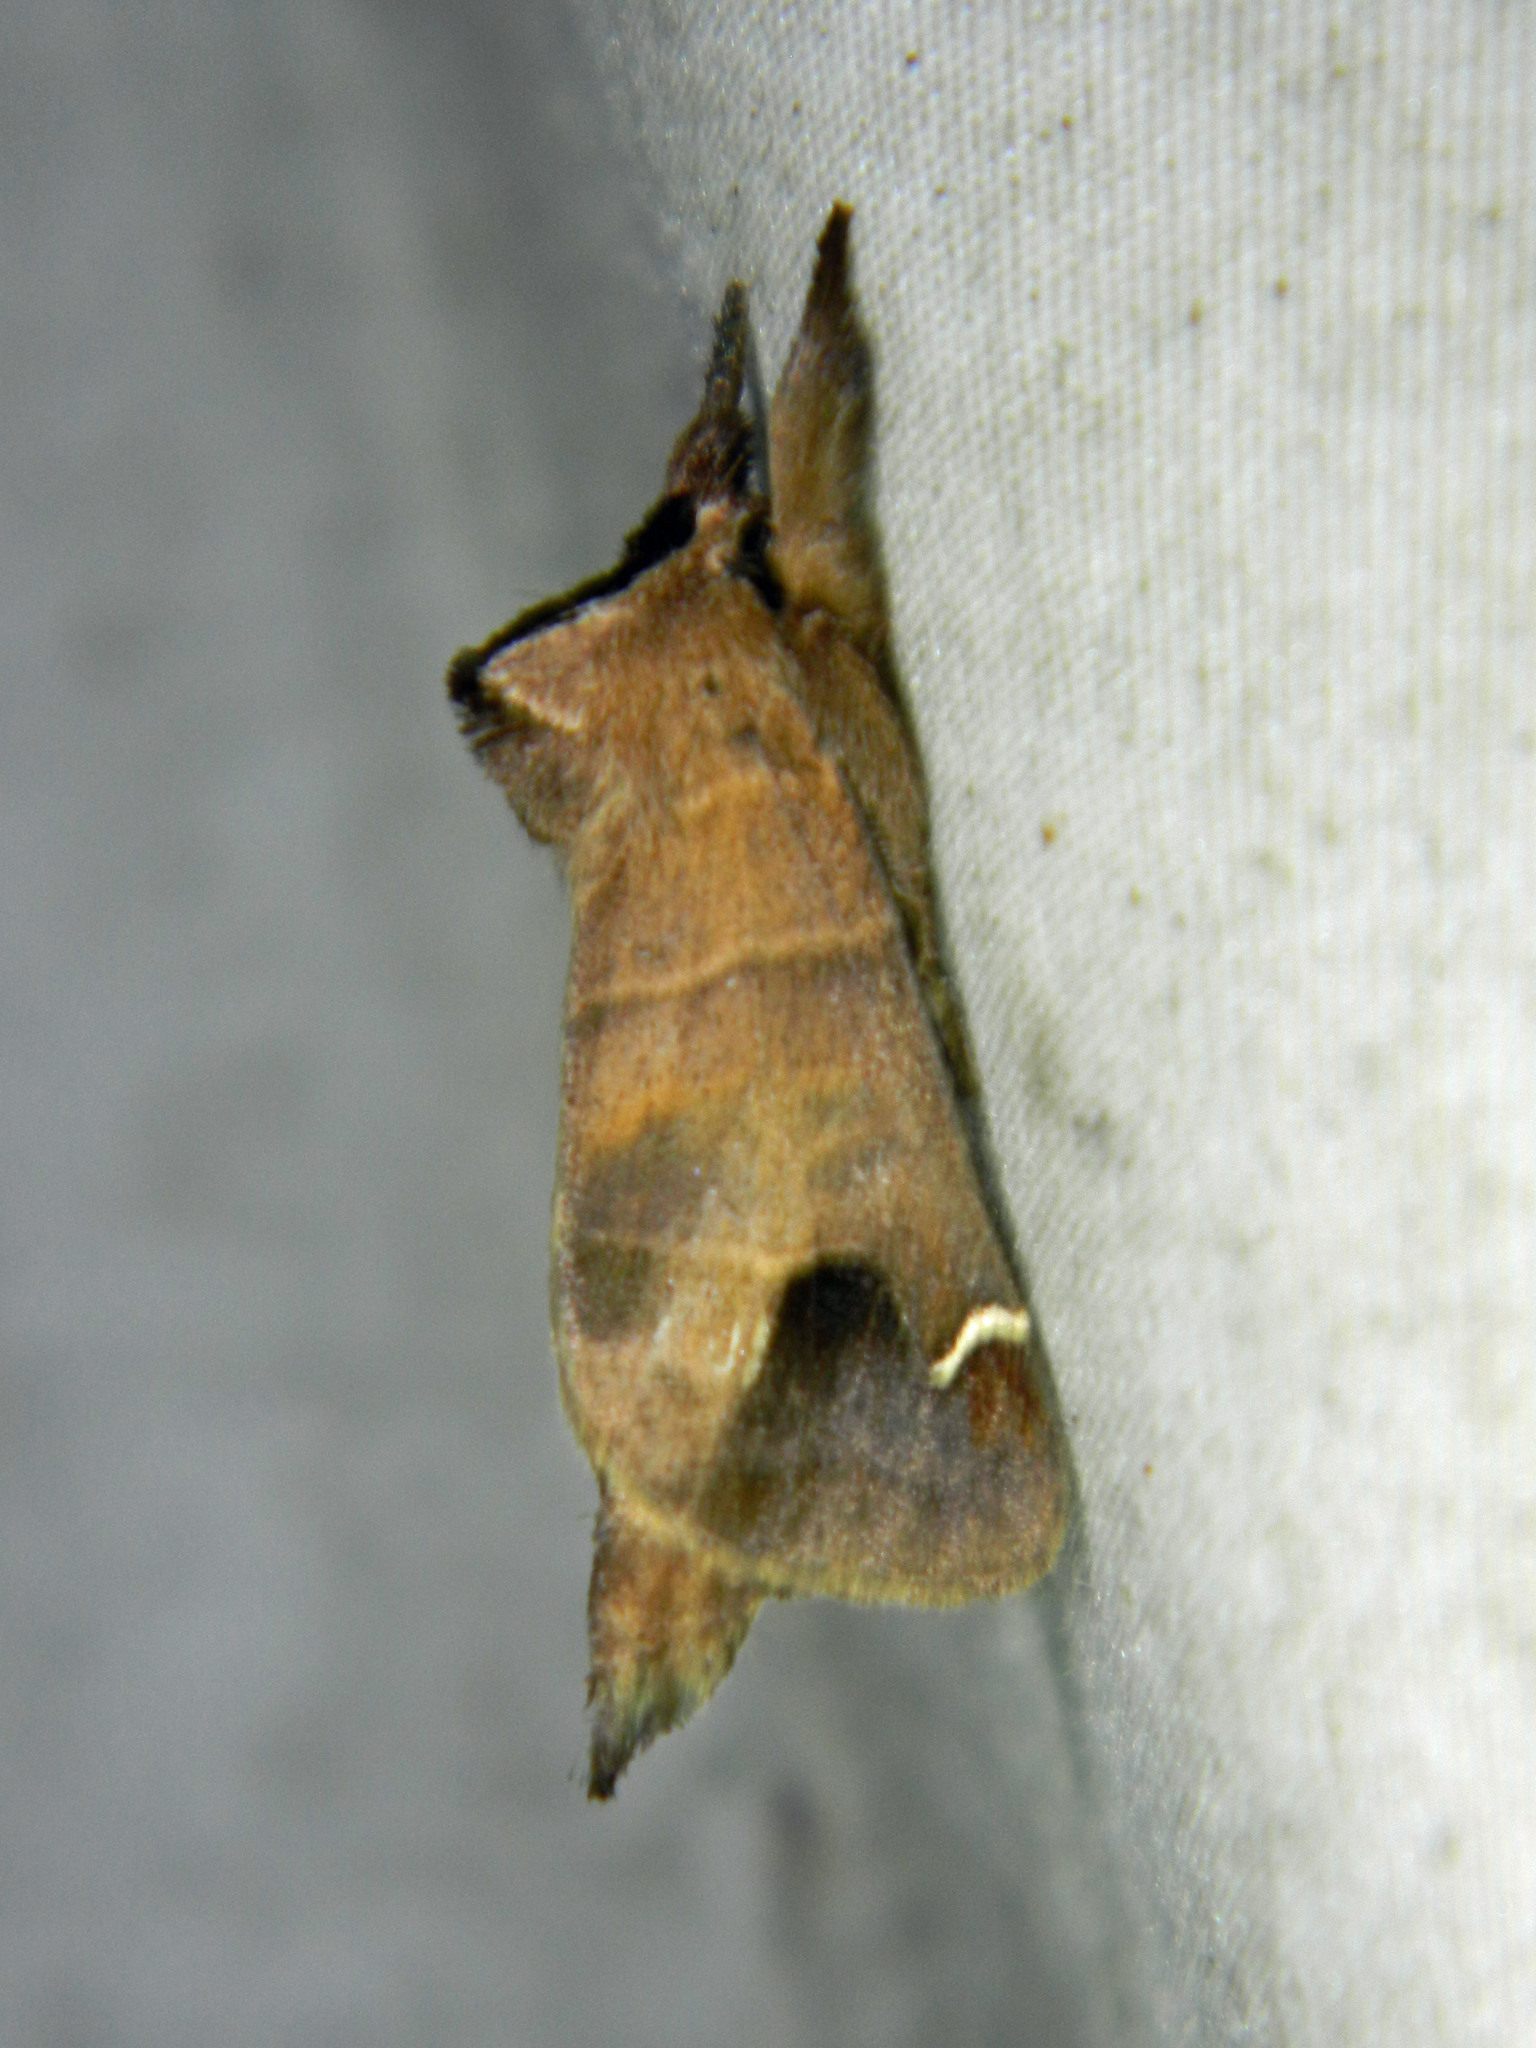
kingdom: Animalia
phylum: Arthropoda
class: Insecta
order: Lepidoptera
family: Notodontidae
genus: Clostera
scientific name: Clostera albosigma
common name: Sigmoid prominent
